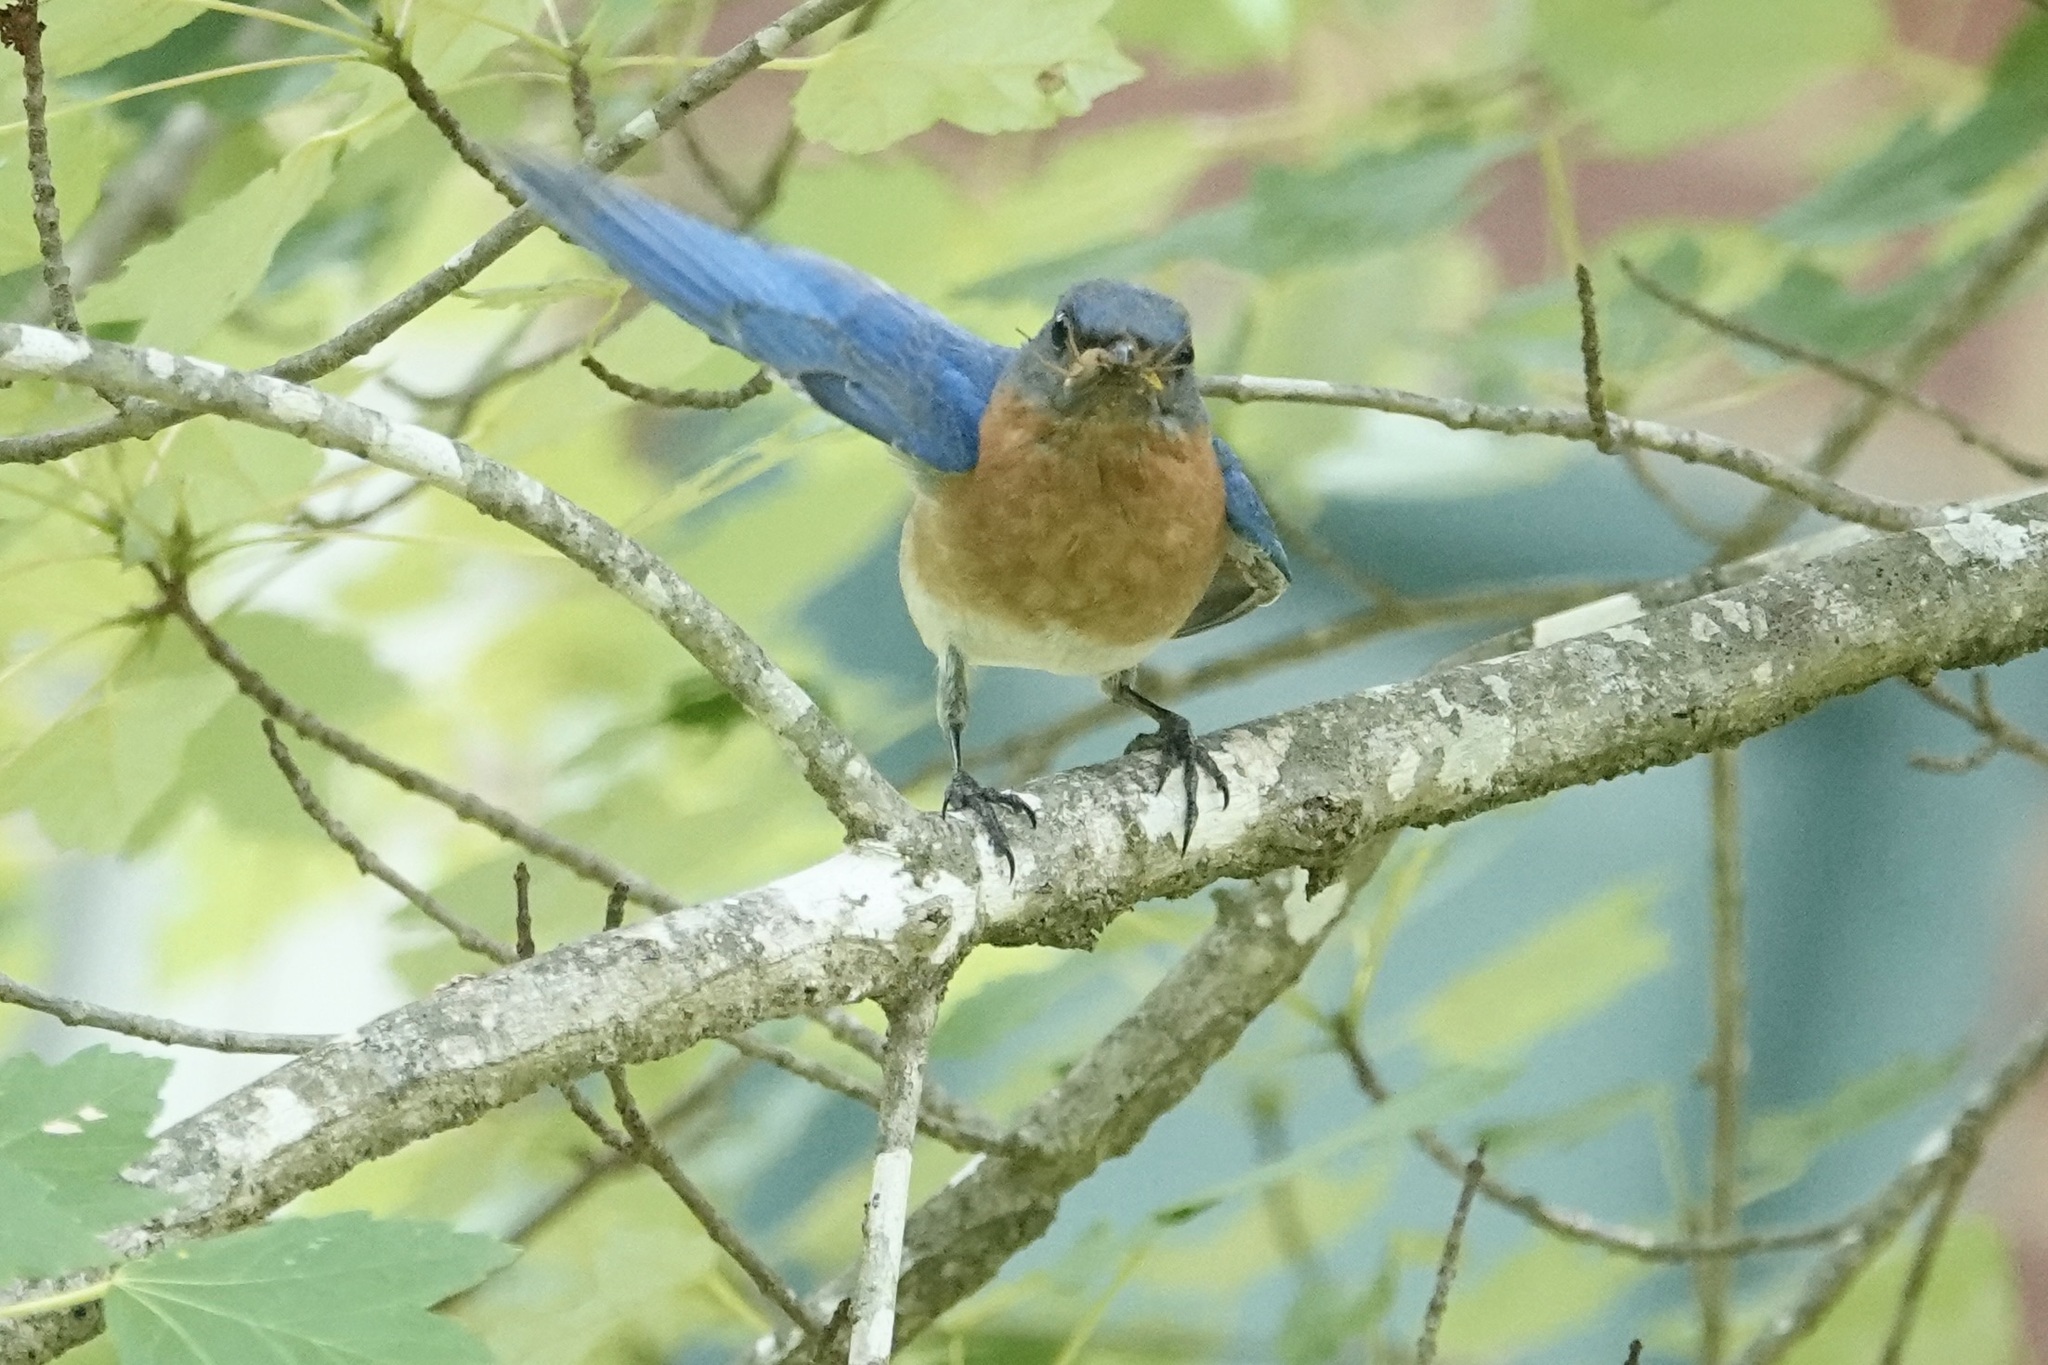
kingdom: Animalia
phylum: Chordata
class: Aves
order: Passeriformes
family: Turdidae
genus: Sialia
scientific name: Sialia sialis
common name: Eastern bluebird
